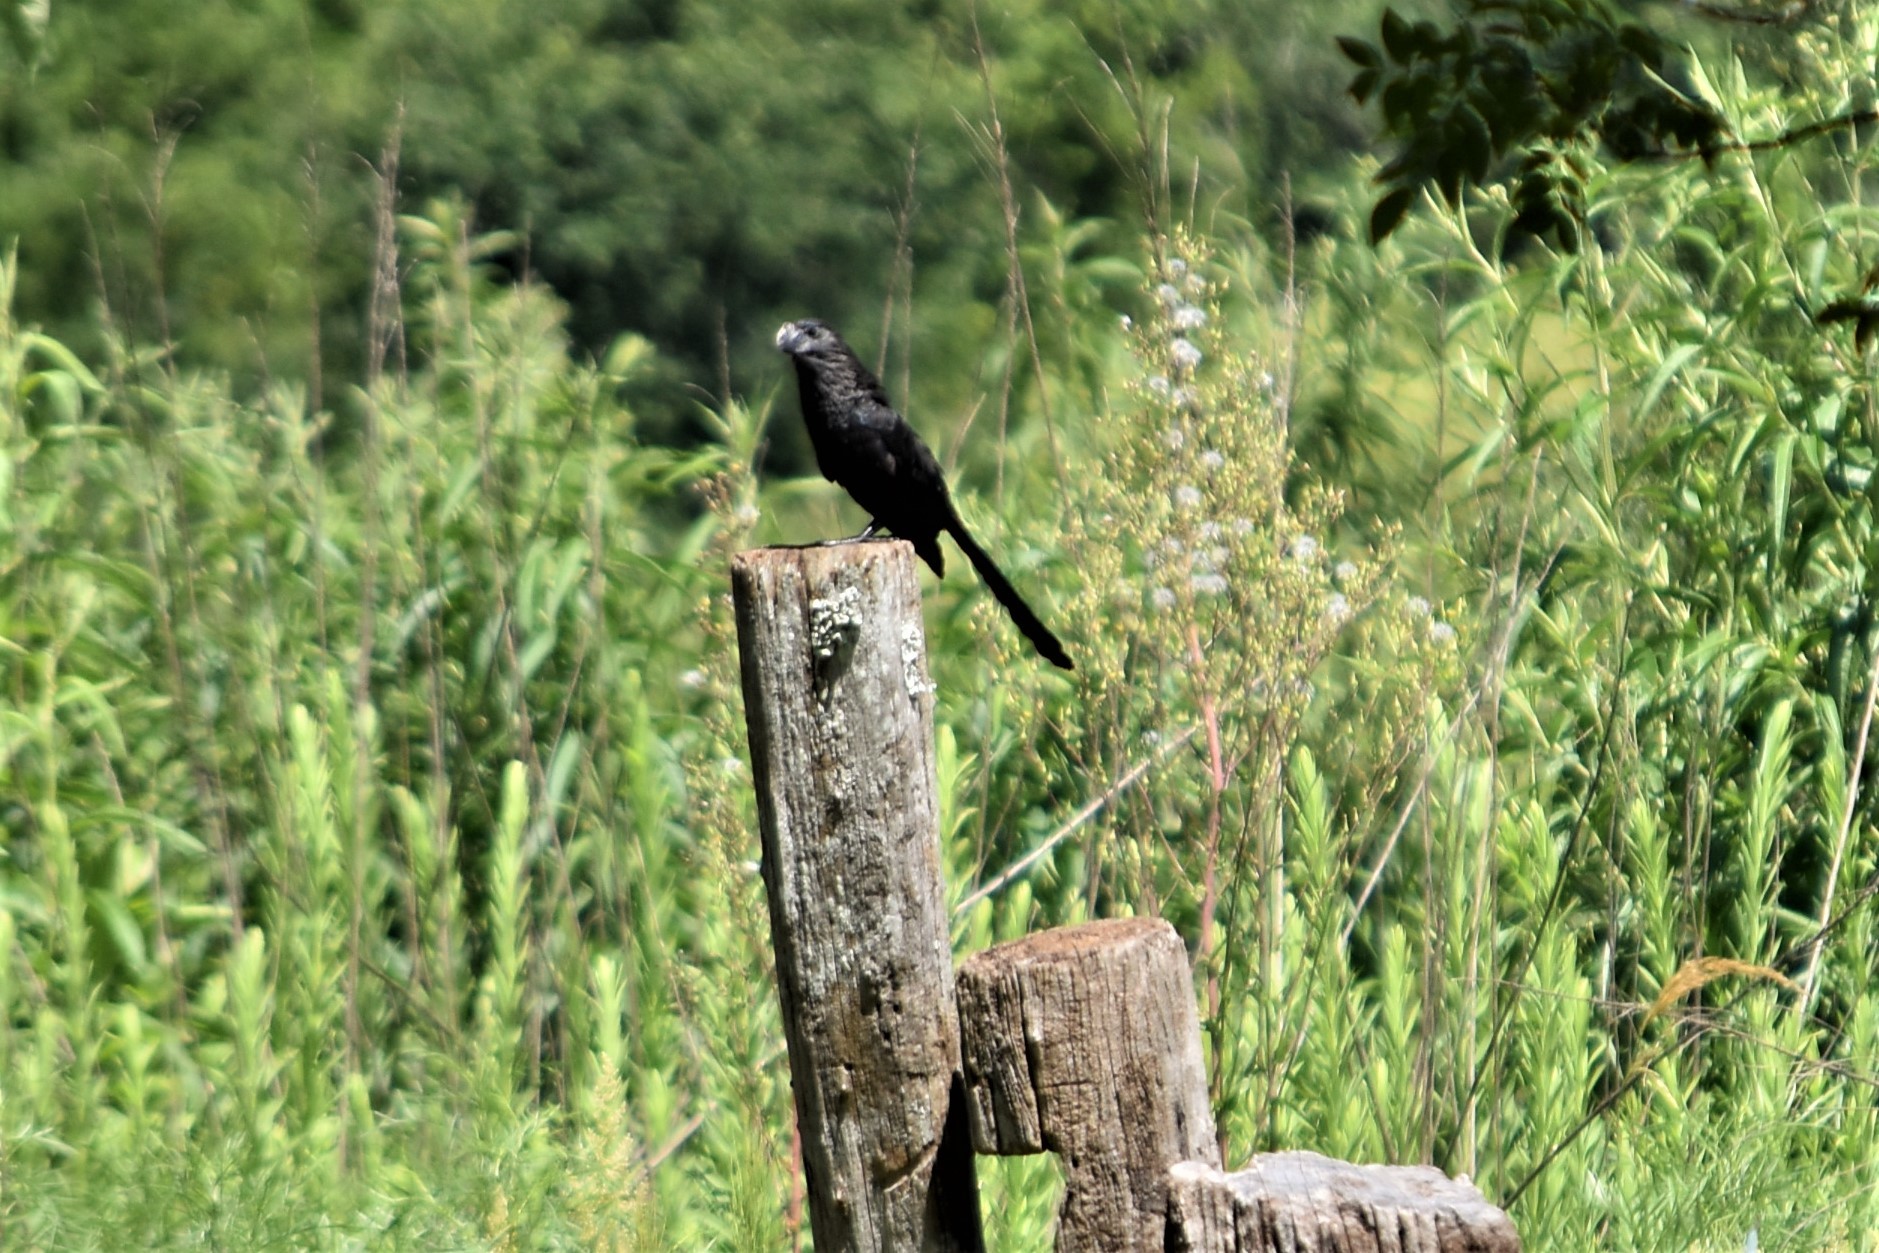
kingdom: Animalia
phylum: Chordata
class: Aves
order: Cuculiformes
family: Cuculidae
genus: Crotophaga
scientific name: Crotophaga ani
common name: Smooth-billed ani
